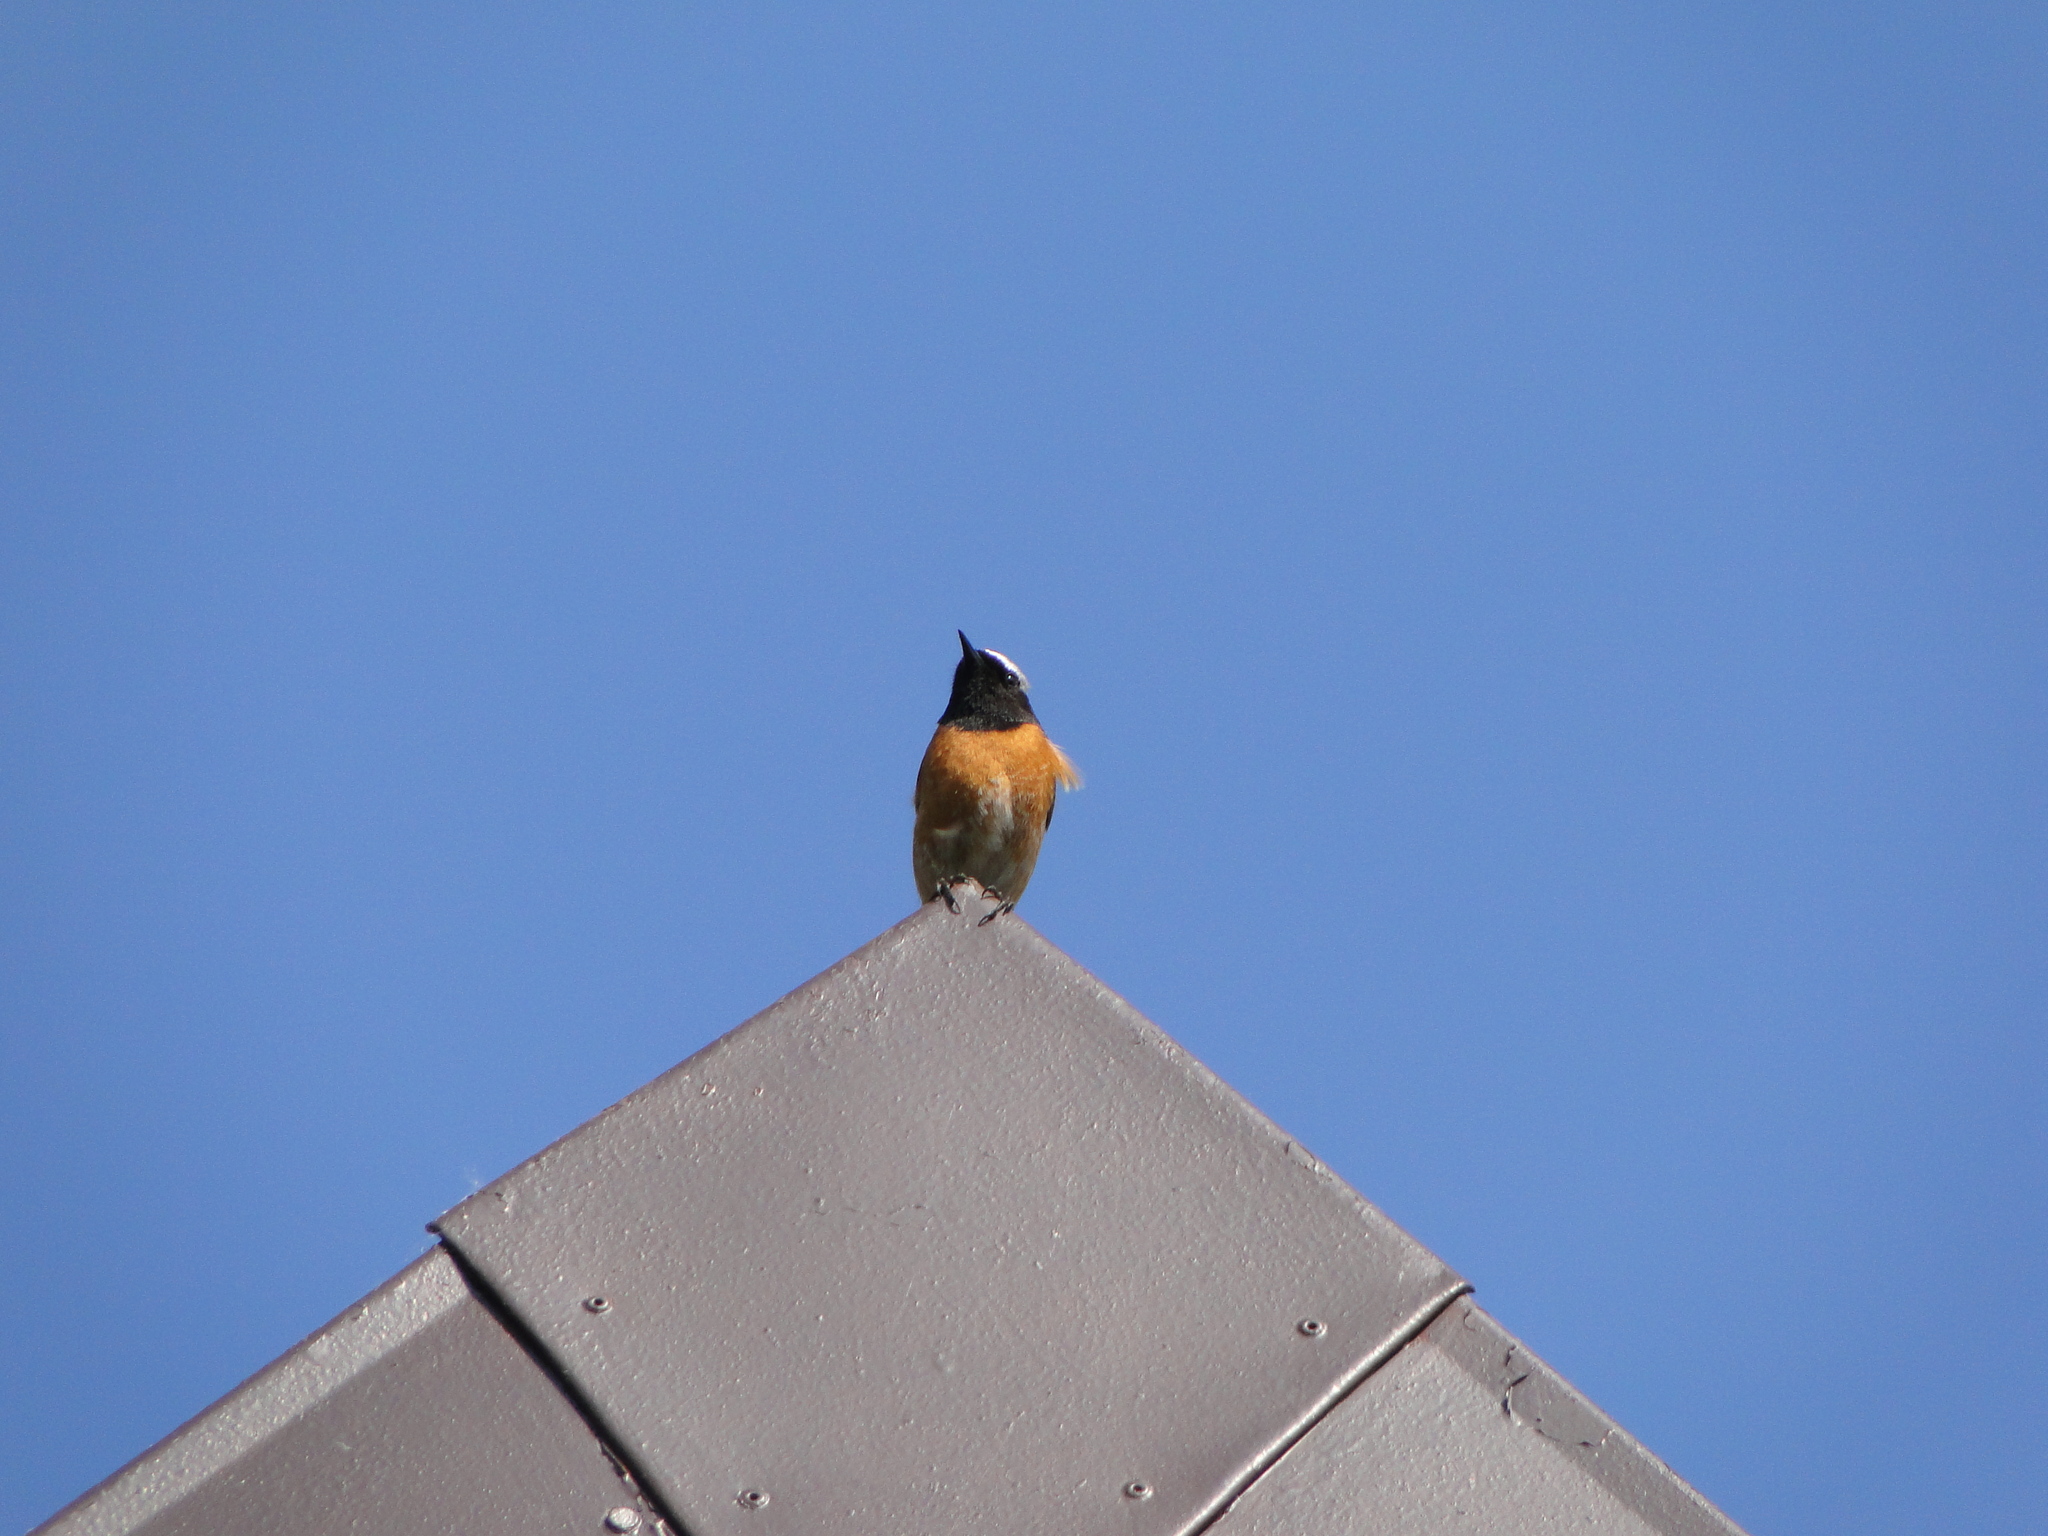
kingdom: Animalia
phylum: Chordata
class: Aves
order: Passeriformes
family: Muscicapidae
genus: Phoenicurus
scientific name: Phoenicurus phoenicurus
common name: Common redstart
